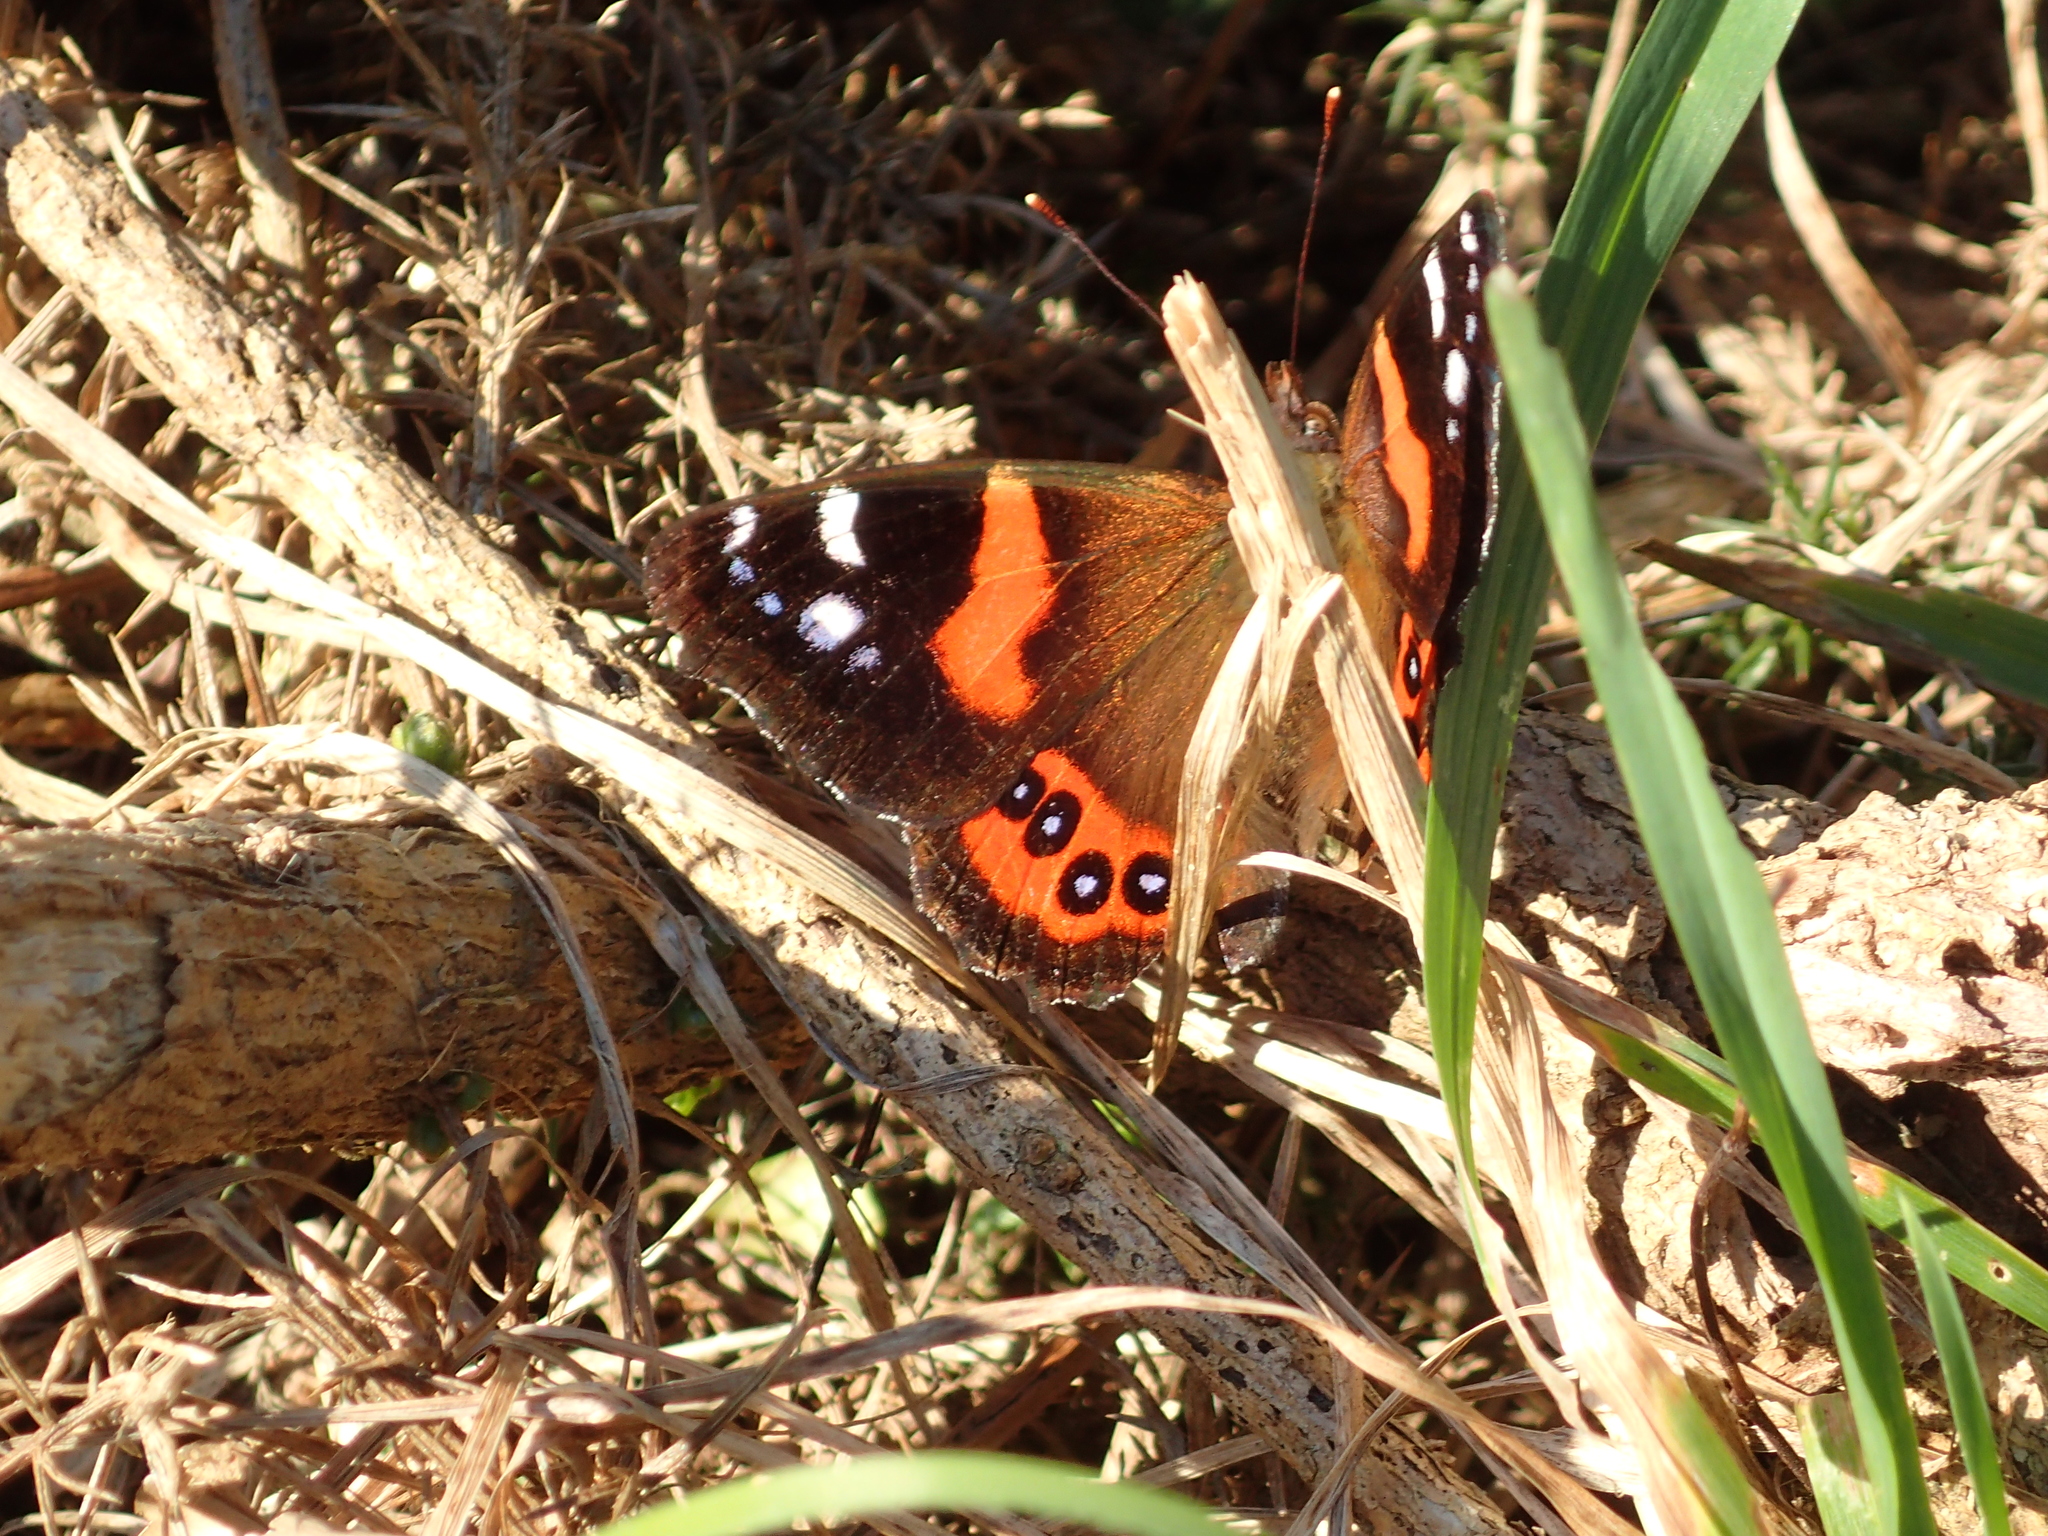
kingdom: Animalia
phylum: Arthropoda
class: Insecta
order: Lepidoptera
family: Nymphalidae
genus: Vanessa
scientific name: Vanessa gonerilla
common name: New zealand red admiral
